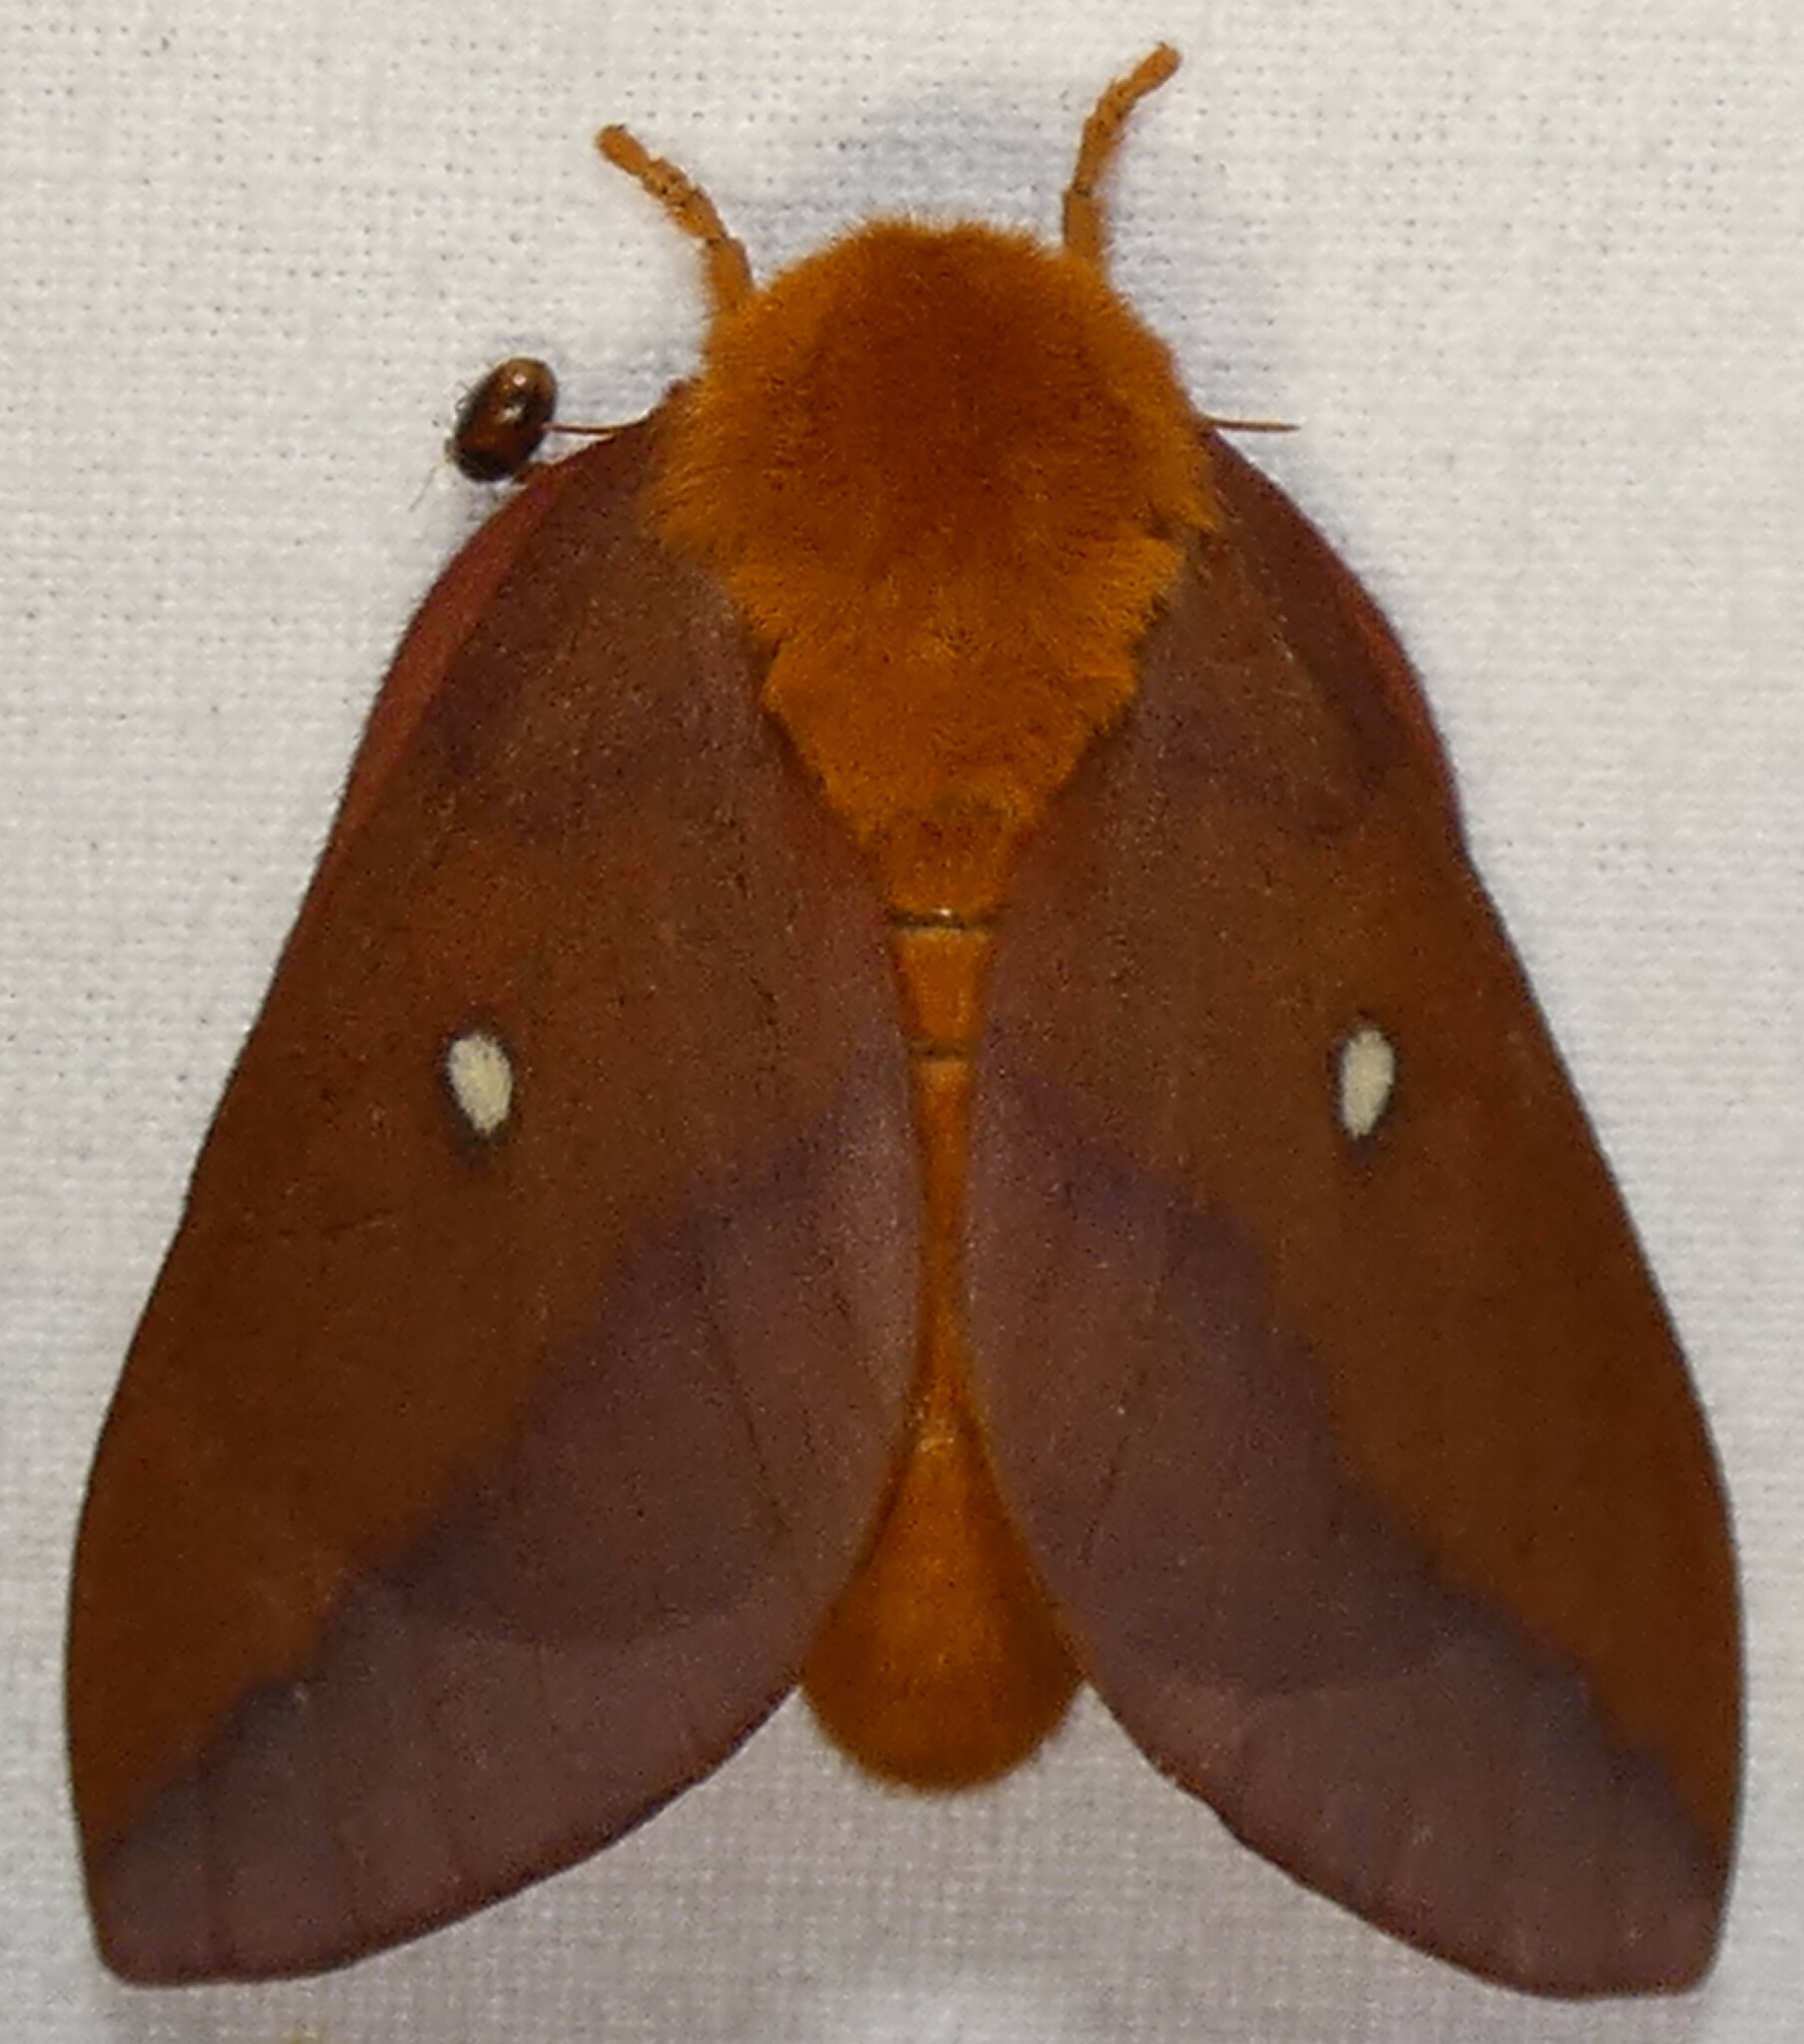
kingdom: Animalia
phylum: Arthropoda
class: Insecta
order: Lepidoptera
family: Saturniidae
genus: Anisota
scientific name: Anisota virginiensis
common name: Pink striped oakworm moth
